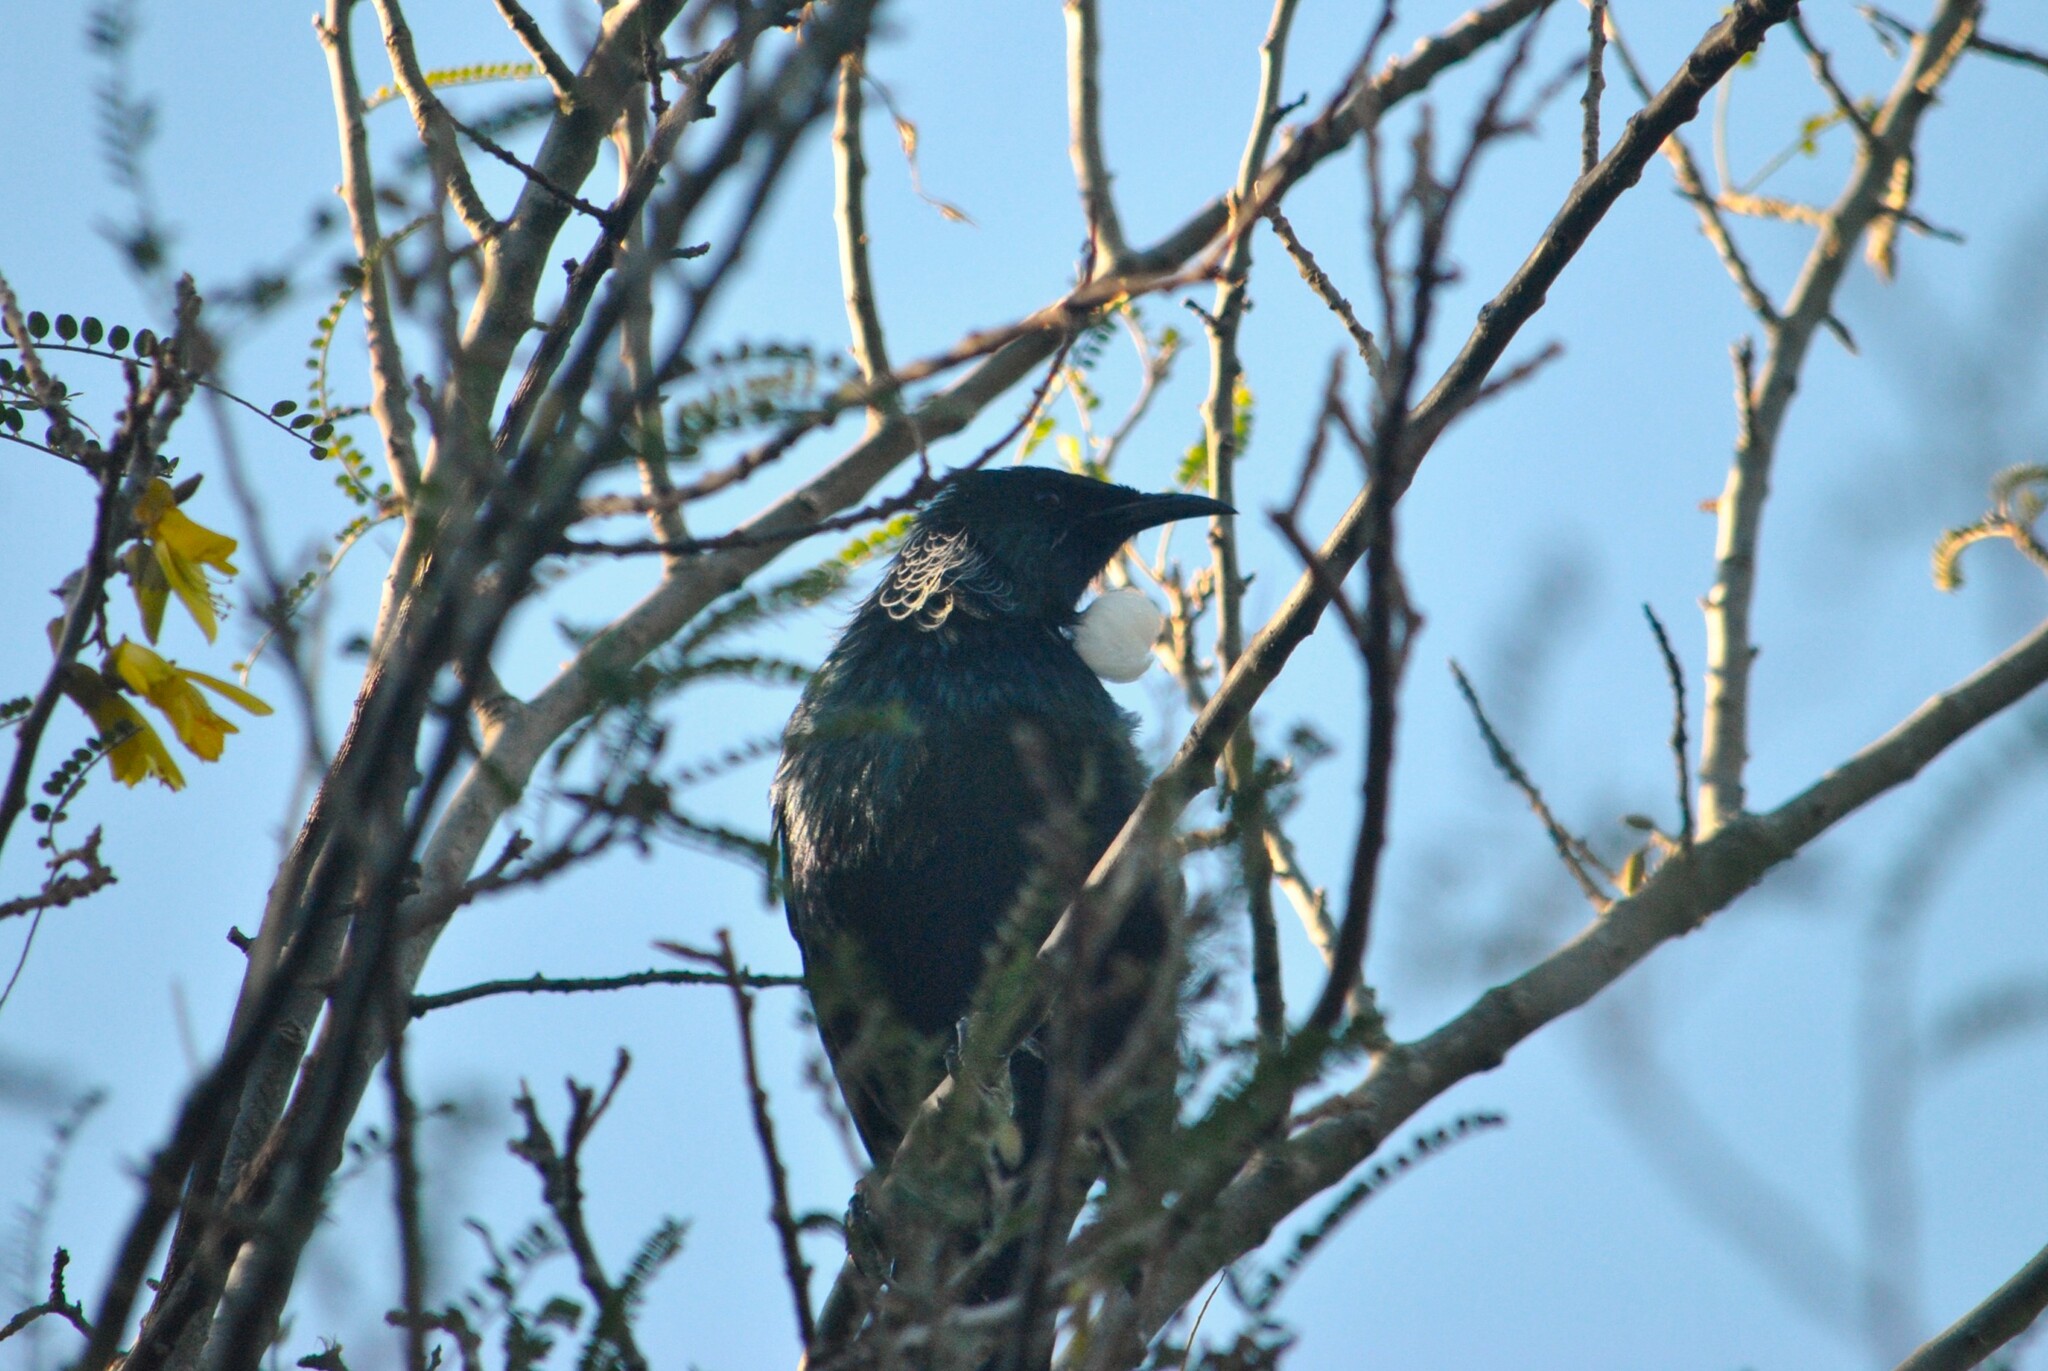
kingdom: Animalia
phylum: Chordata
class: Aves
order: Passeriformes
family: Meliphagidae
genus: Prosthemadera
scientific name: Prosthemadera novaeseelandiae
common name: Tui
